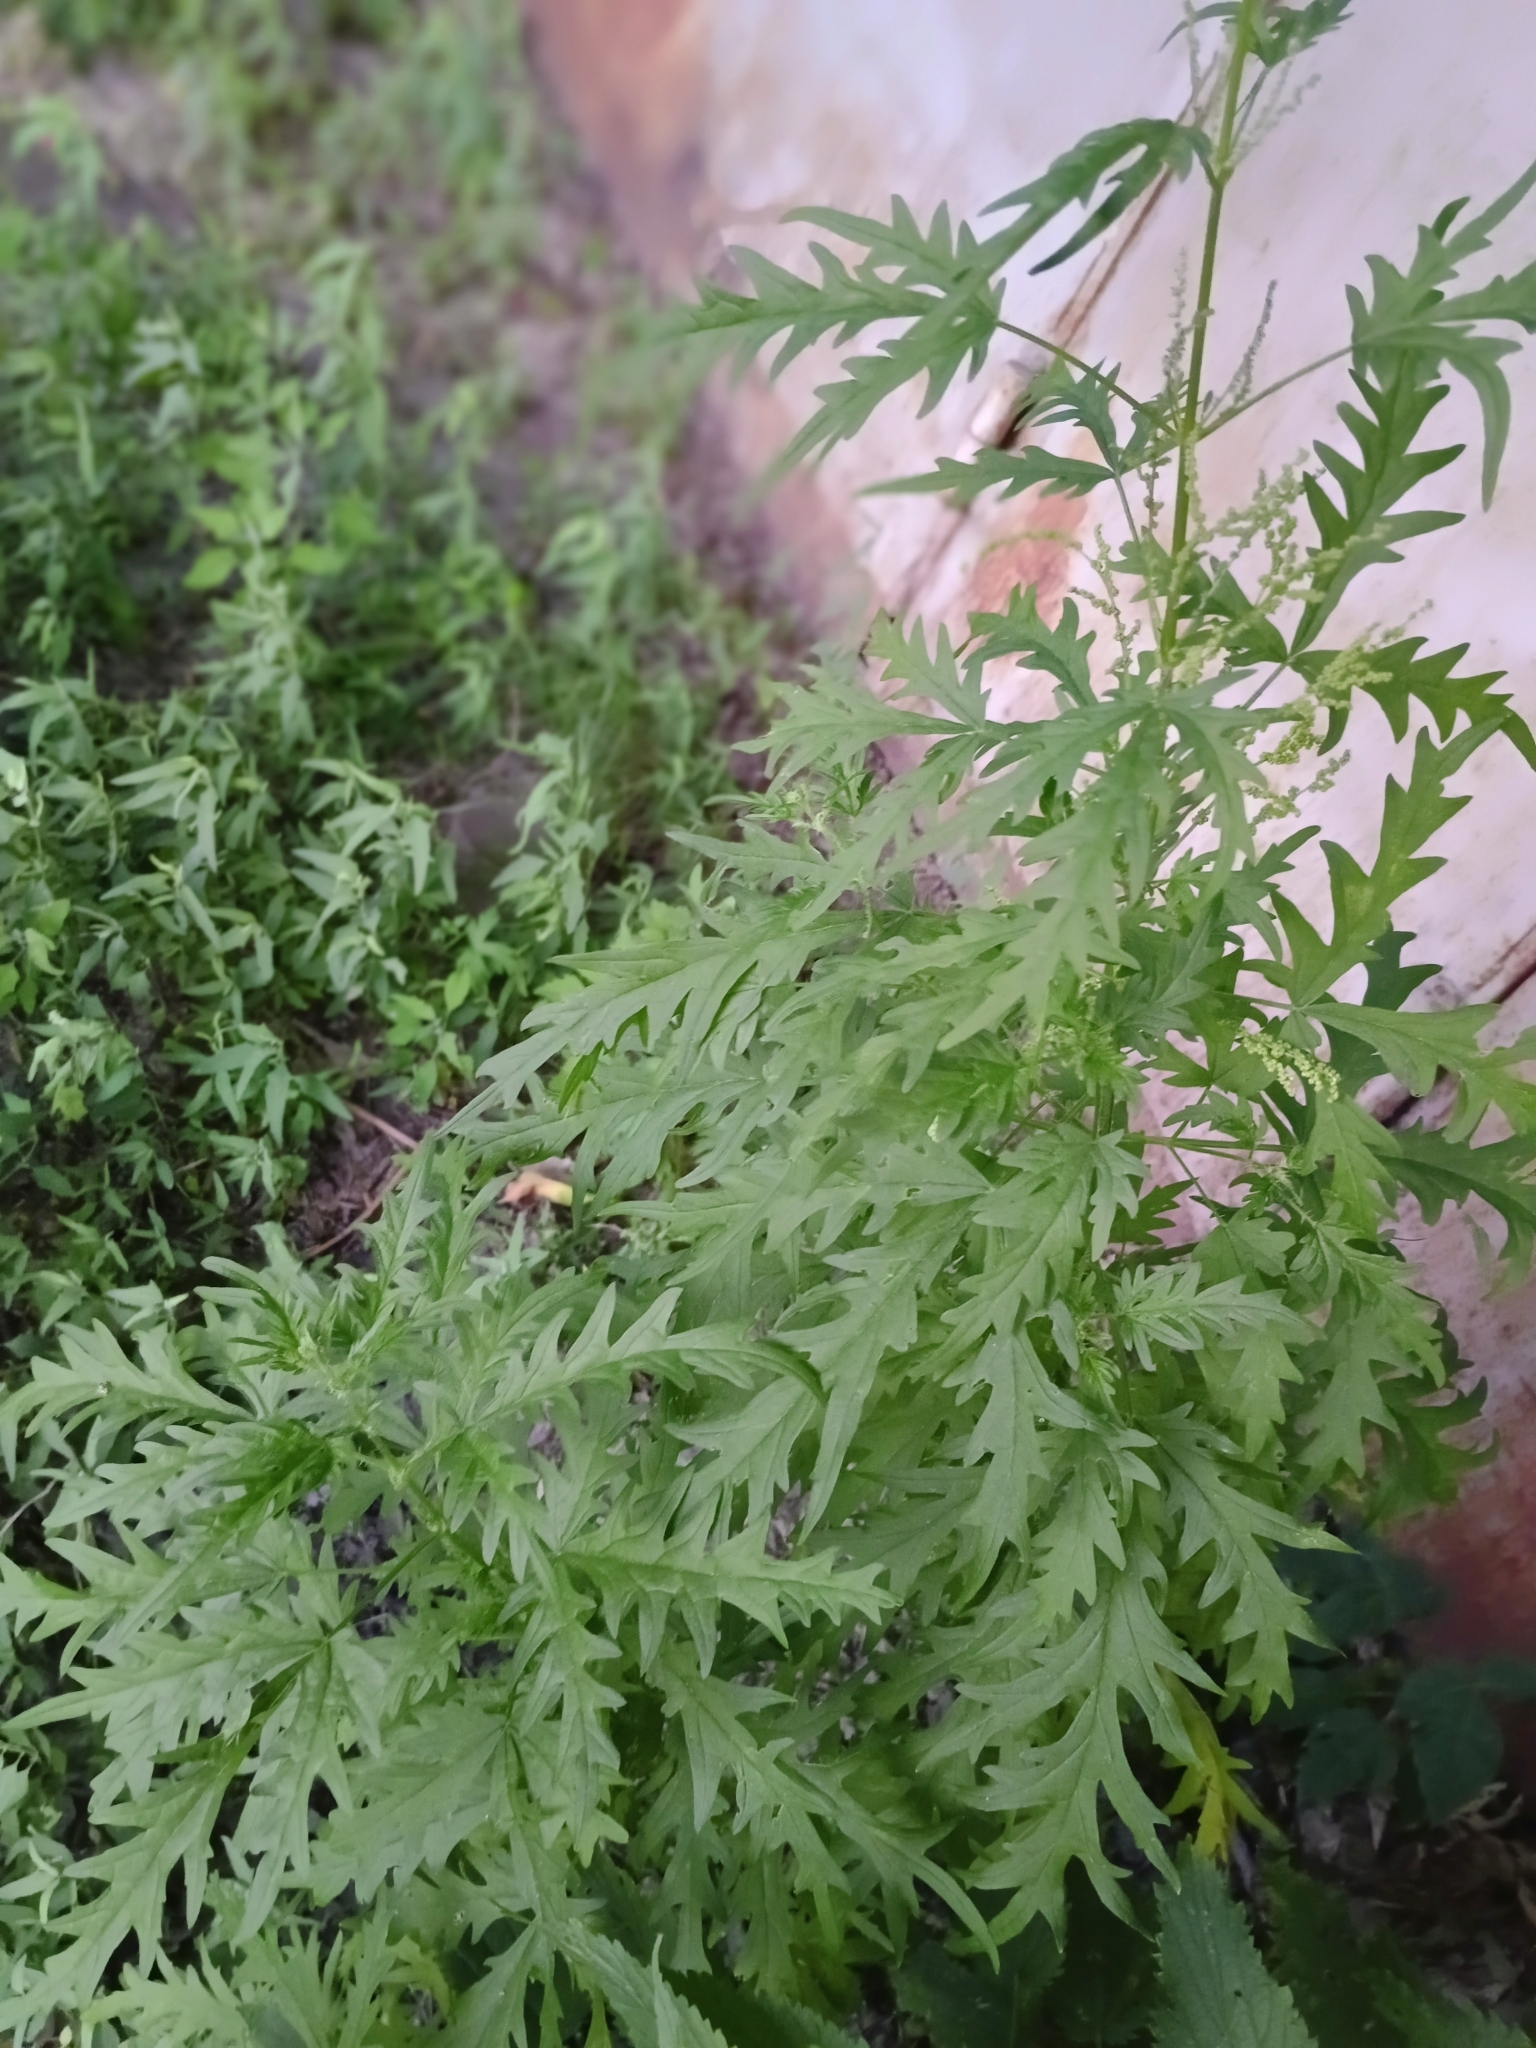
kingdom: Plantae
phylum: Tracheophyta
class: Magnoliopsida
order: Rosales
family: Urticaceae
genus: Urtica
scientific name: Urtica cannabina
